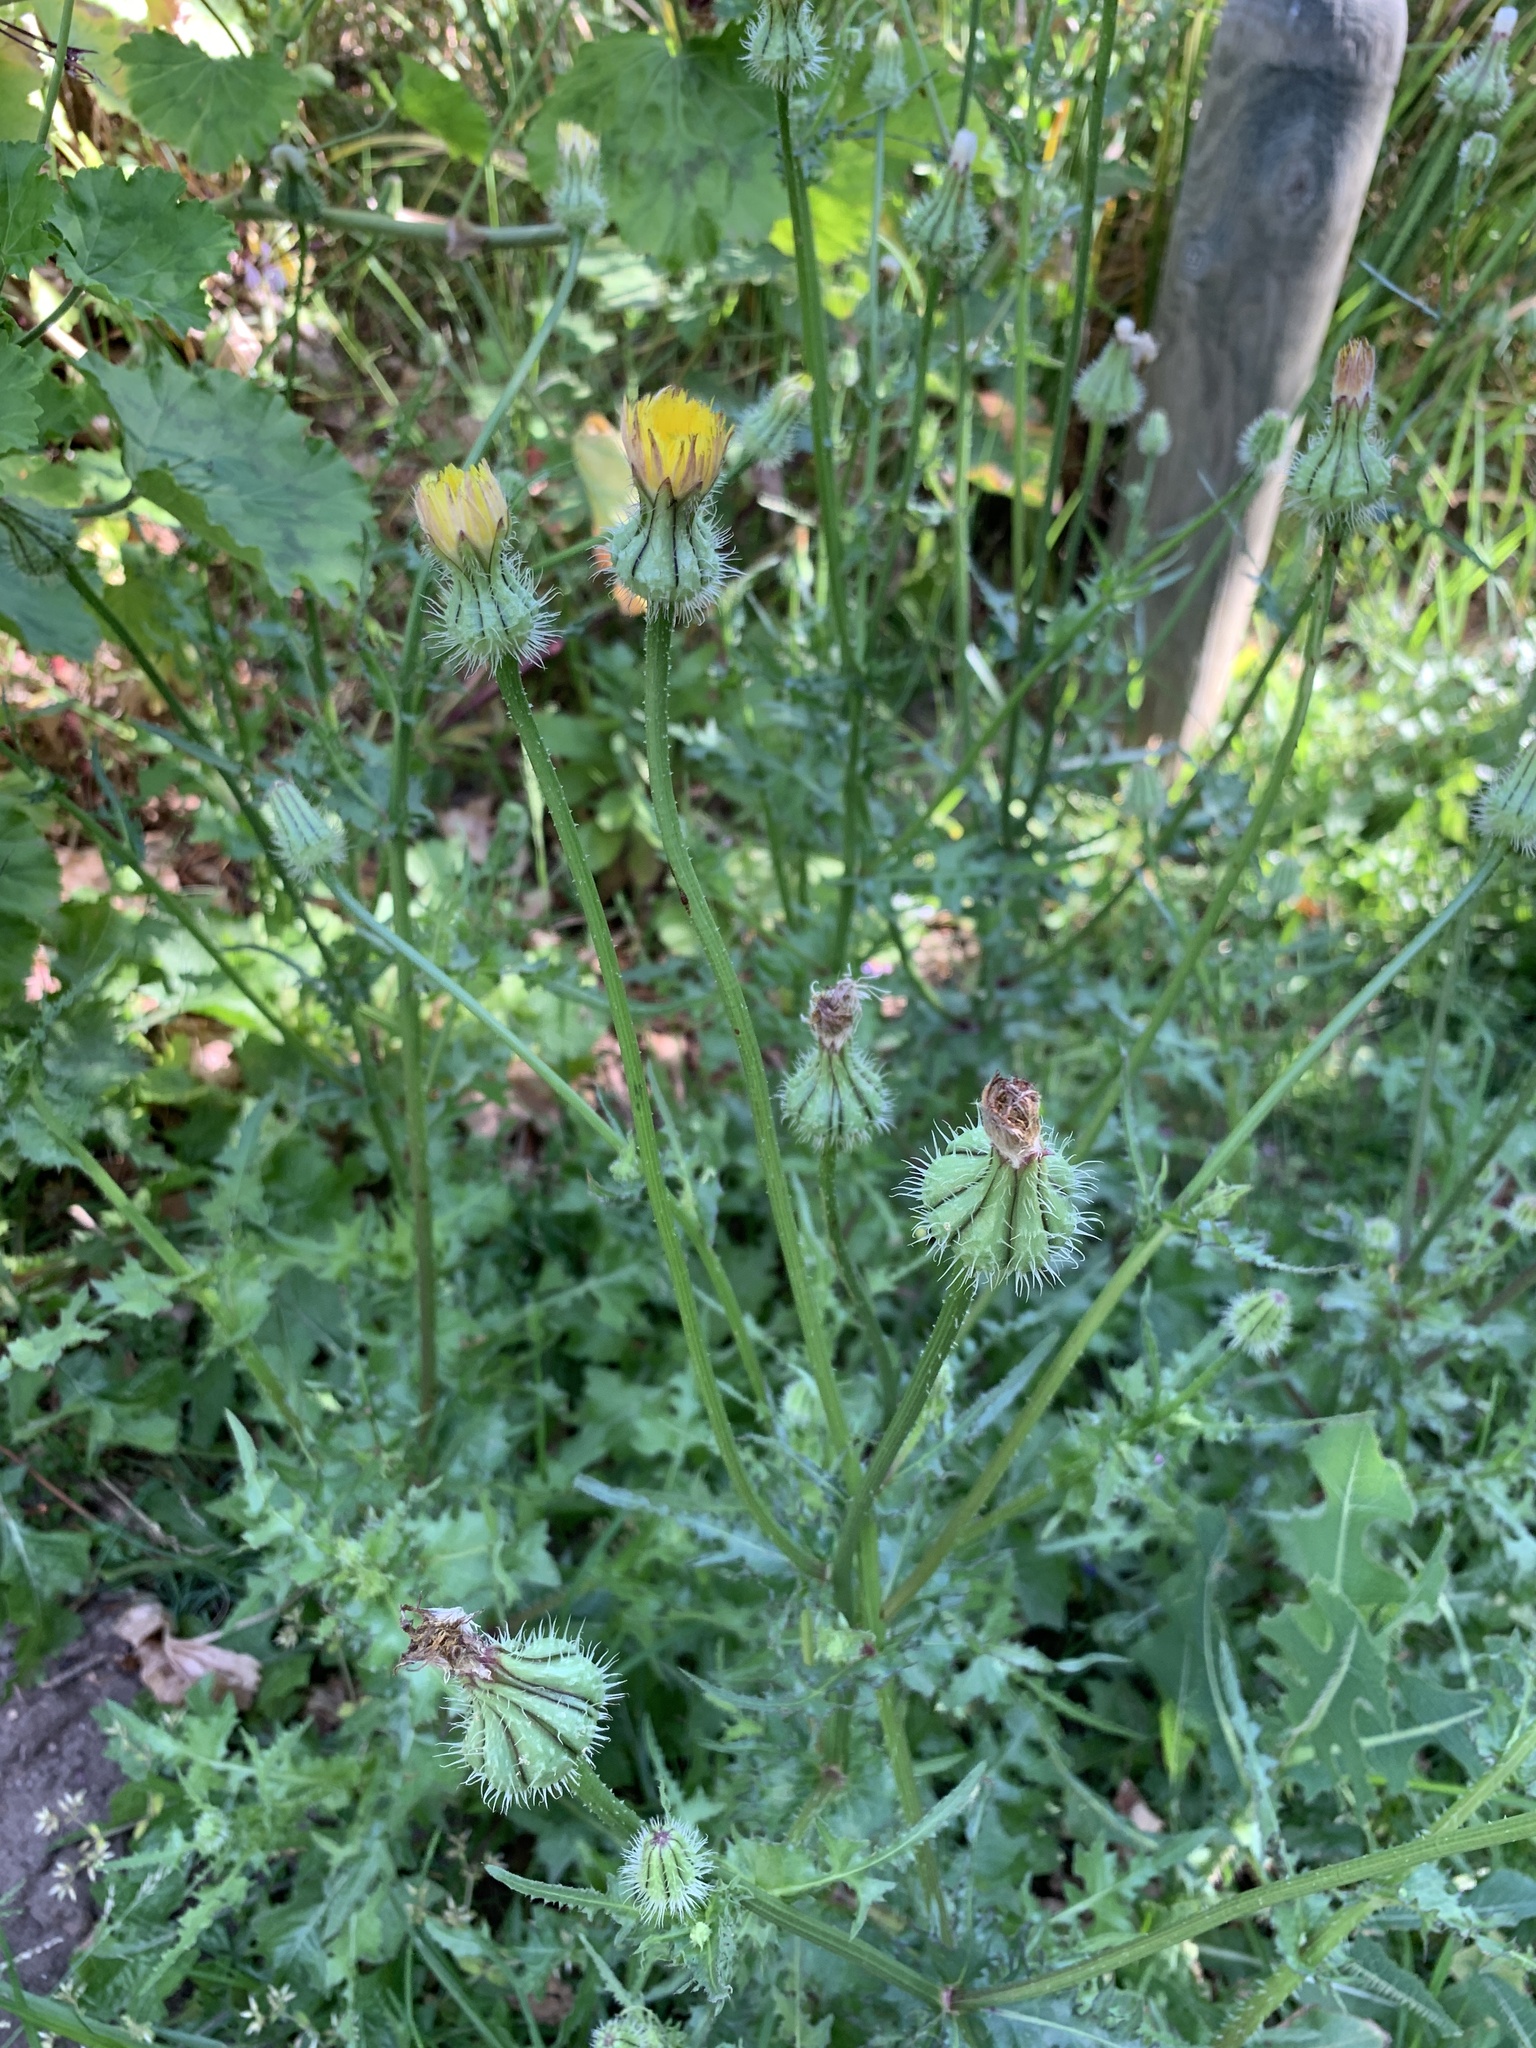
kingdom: Plantae
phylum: Tracheophyta
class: Magnoliopsida
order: Asterales
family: Asteraceae
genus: Urospermum
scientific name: Urospermum picroides
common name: False hawkbit
